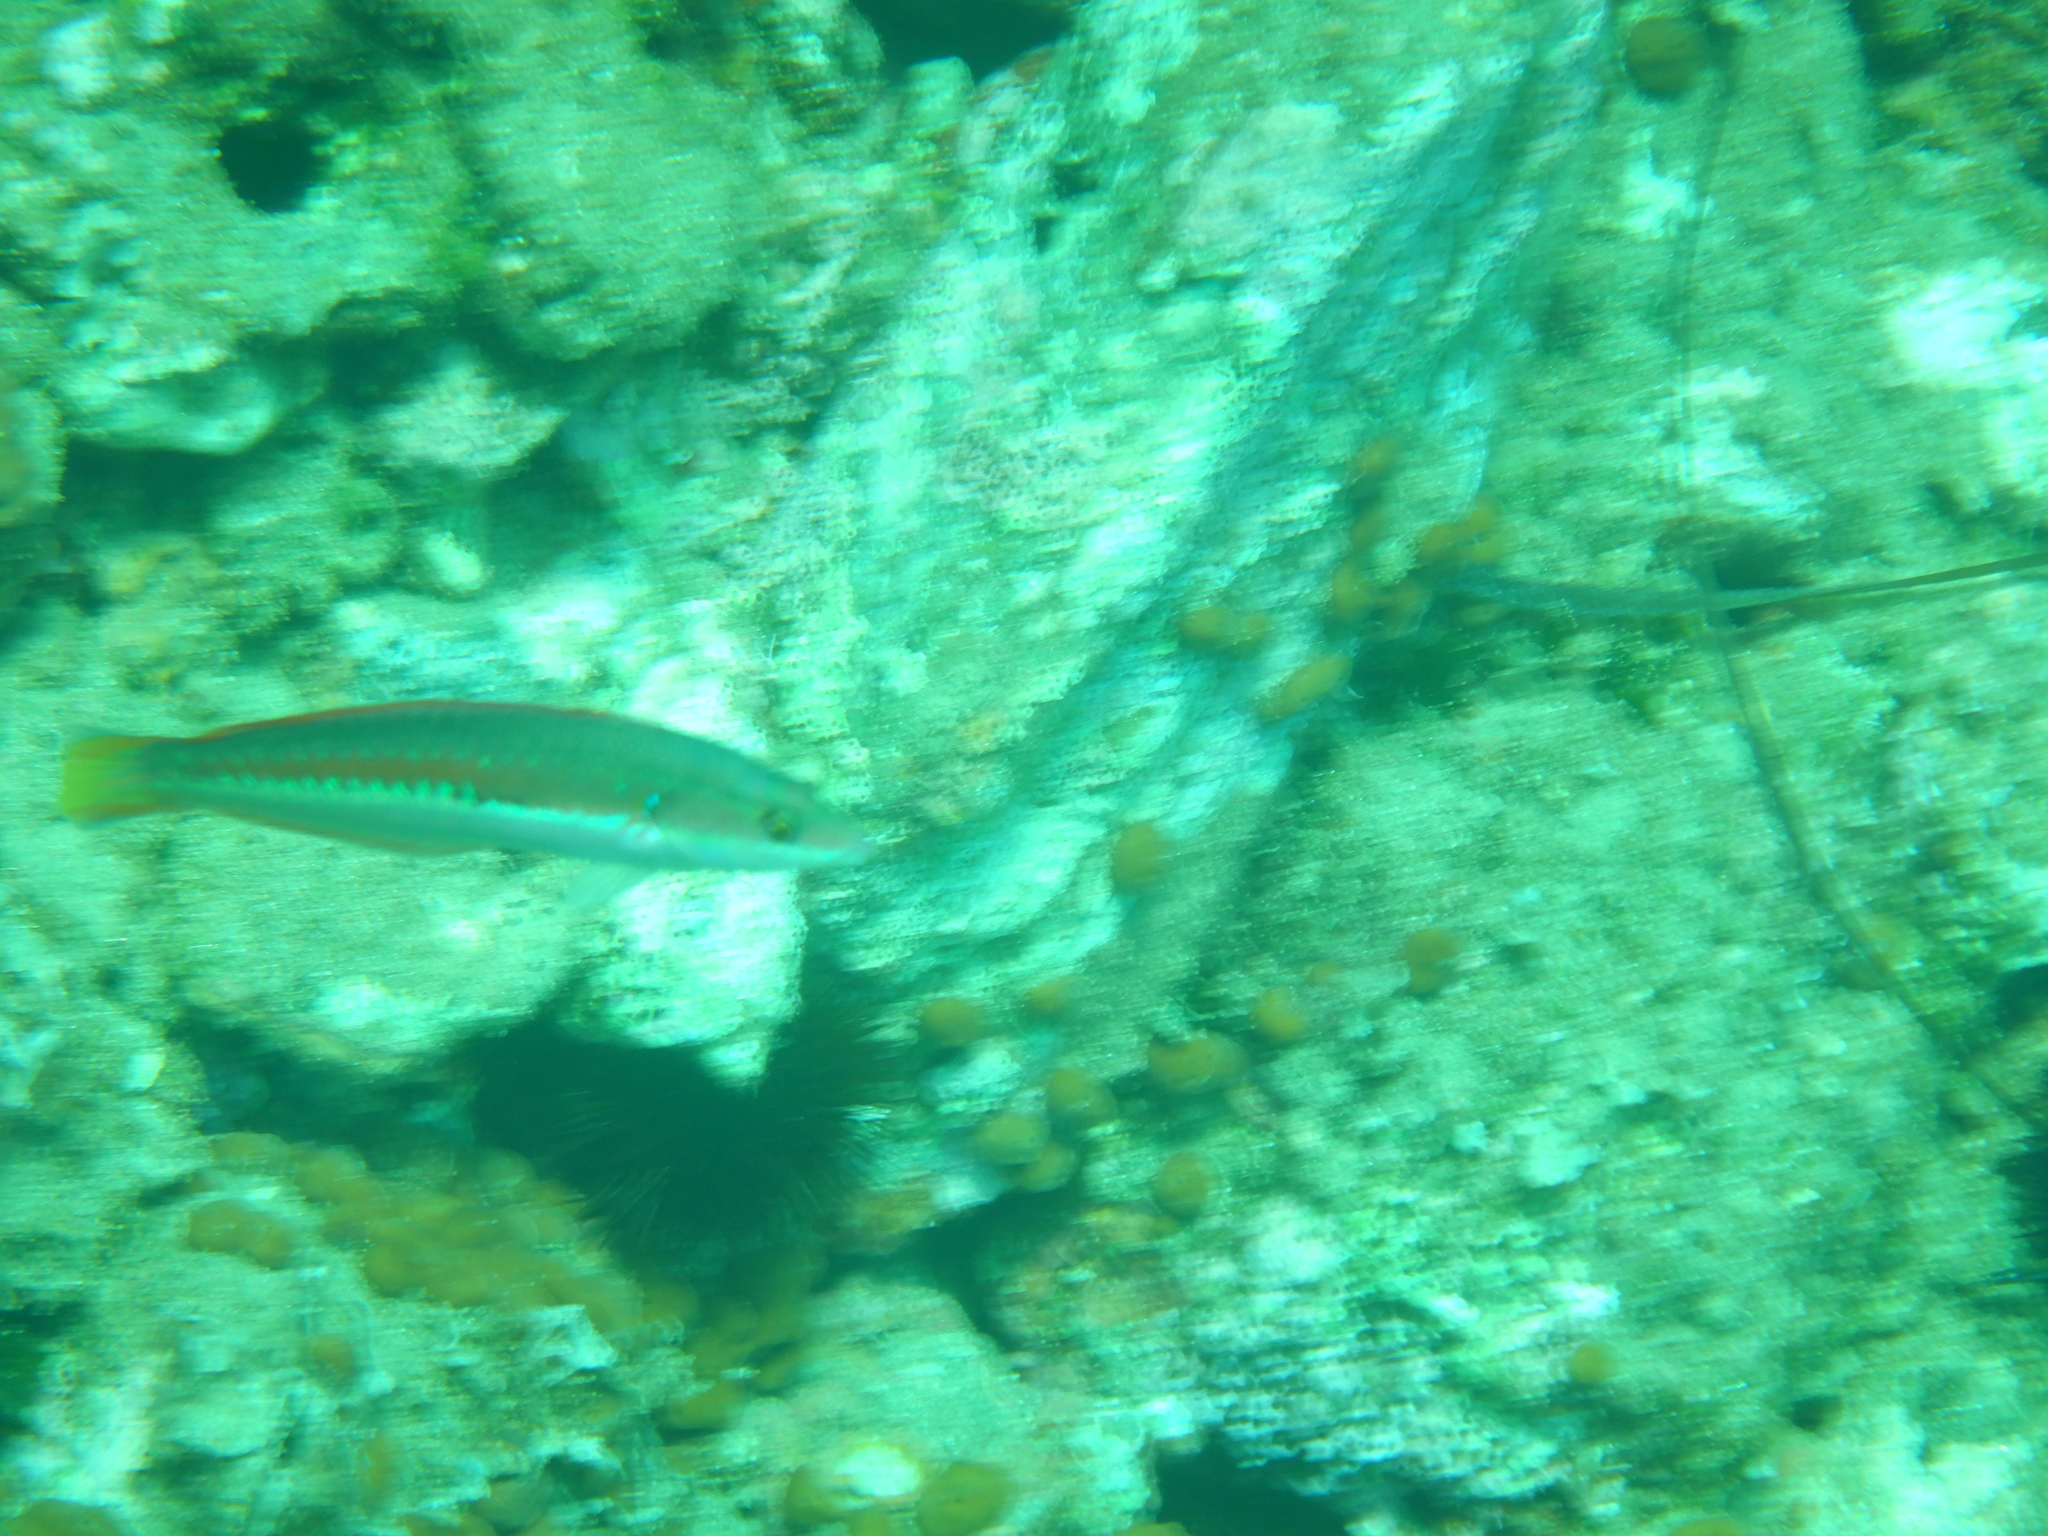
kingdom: Animalia
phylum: Chordata
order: Perciformes
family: Labridae
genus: Coris
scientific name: Coris julis
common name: Rainbow wrasse
